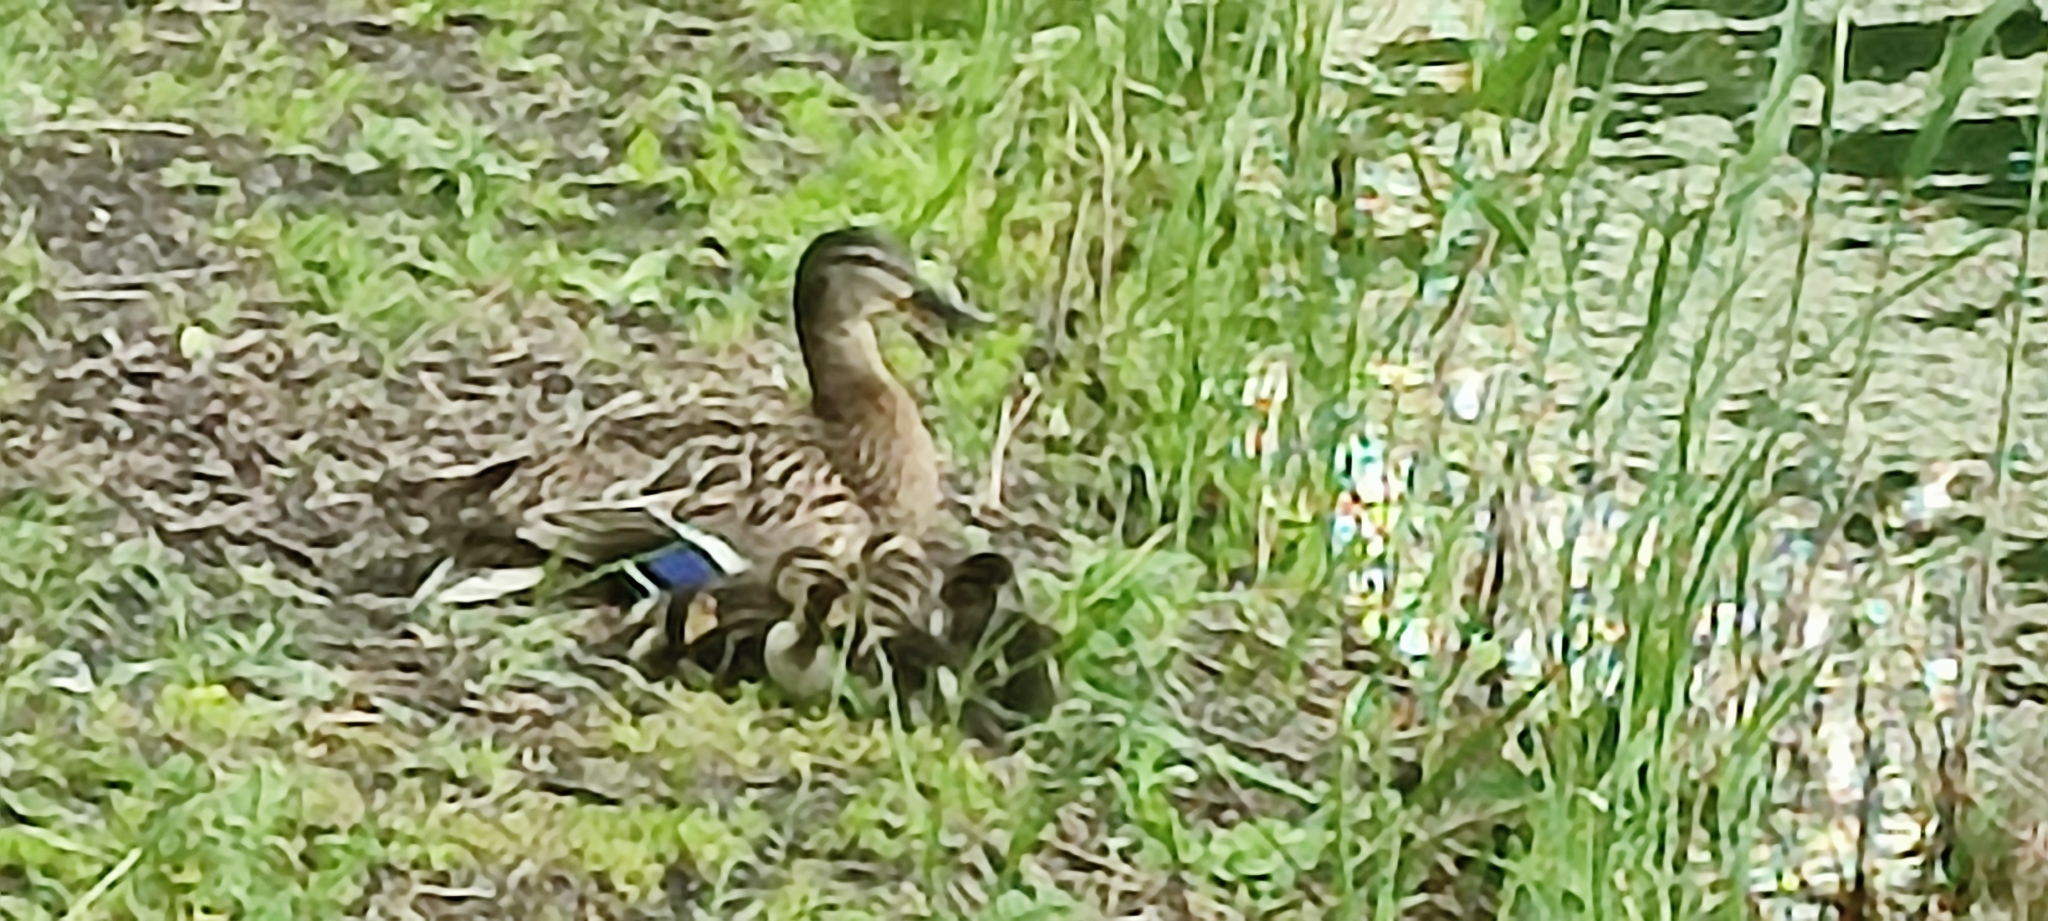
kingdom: Animalia
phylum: Chordata
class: Aves
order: Anseriformes
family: Anatidae
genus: Anas
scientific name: Anas platyrhynchos
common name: Mallard
